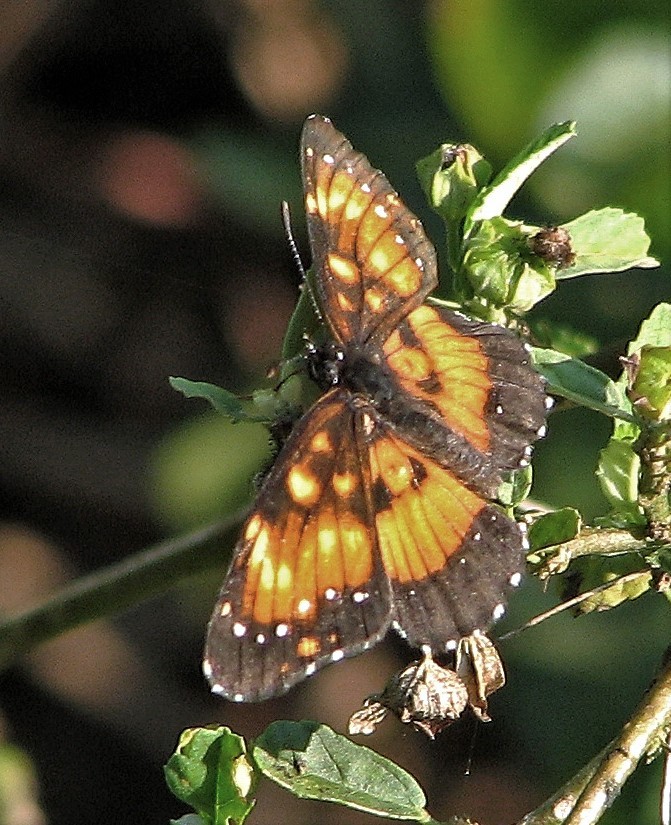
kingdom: Animalia
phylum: Arthropoda
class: Insecta
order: Lepidoptera
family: Nymphalidae
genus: Chlosyne
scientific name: Chlosyne lacinia
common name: Bordered patch
